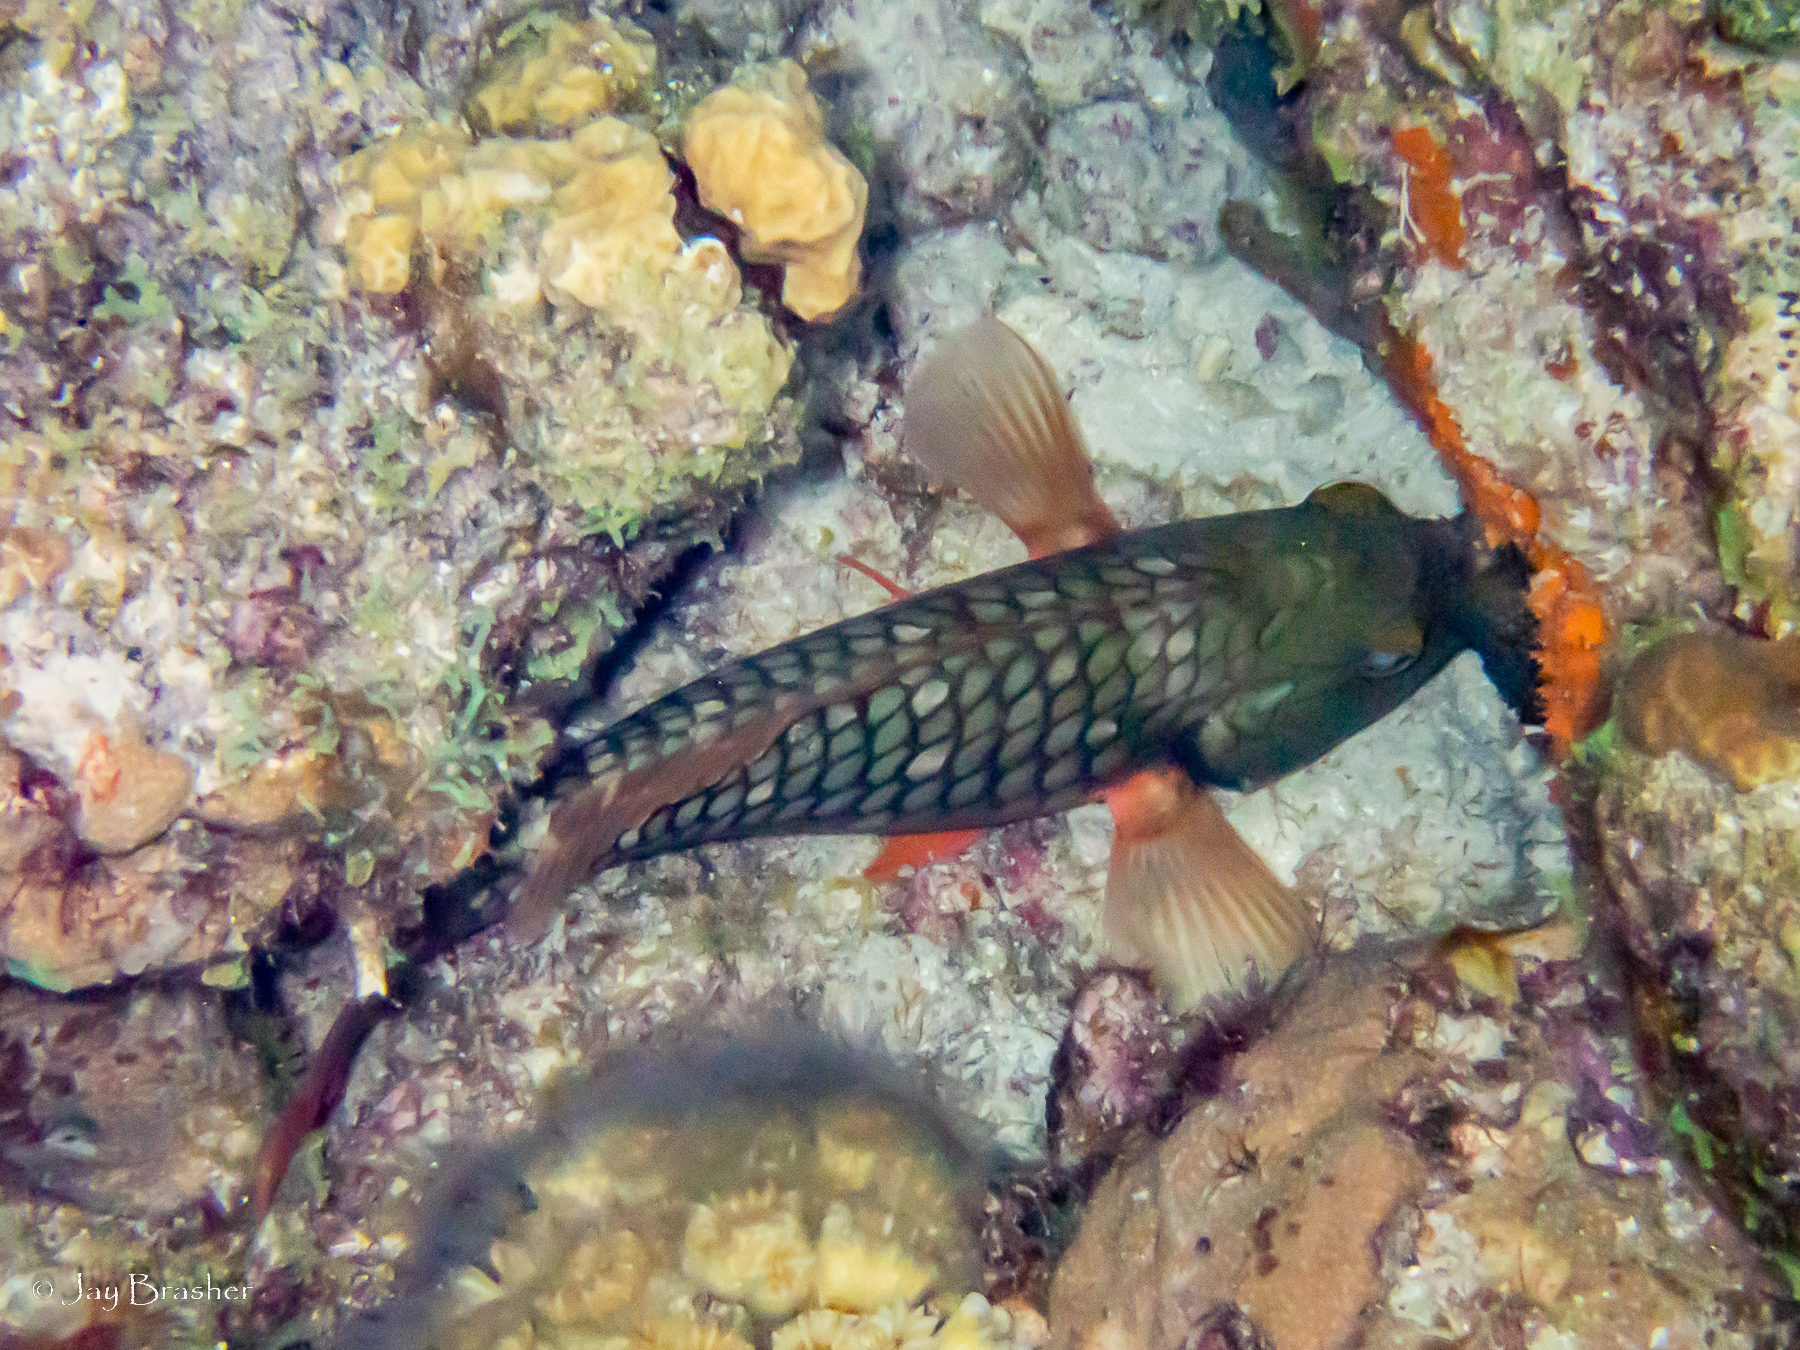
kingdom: Animalia
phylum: Chordata
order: Perciformes
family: Scaridae
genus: Sparisoma
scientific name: Sparisoma viride
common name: Stoplight parrotfish
